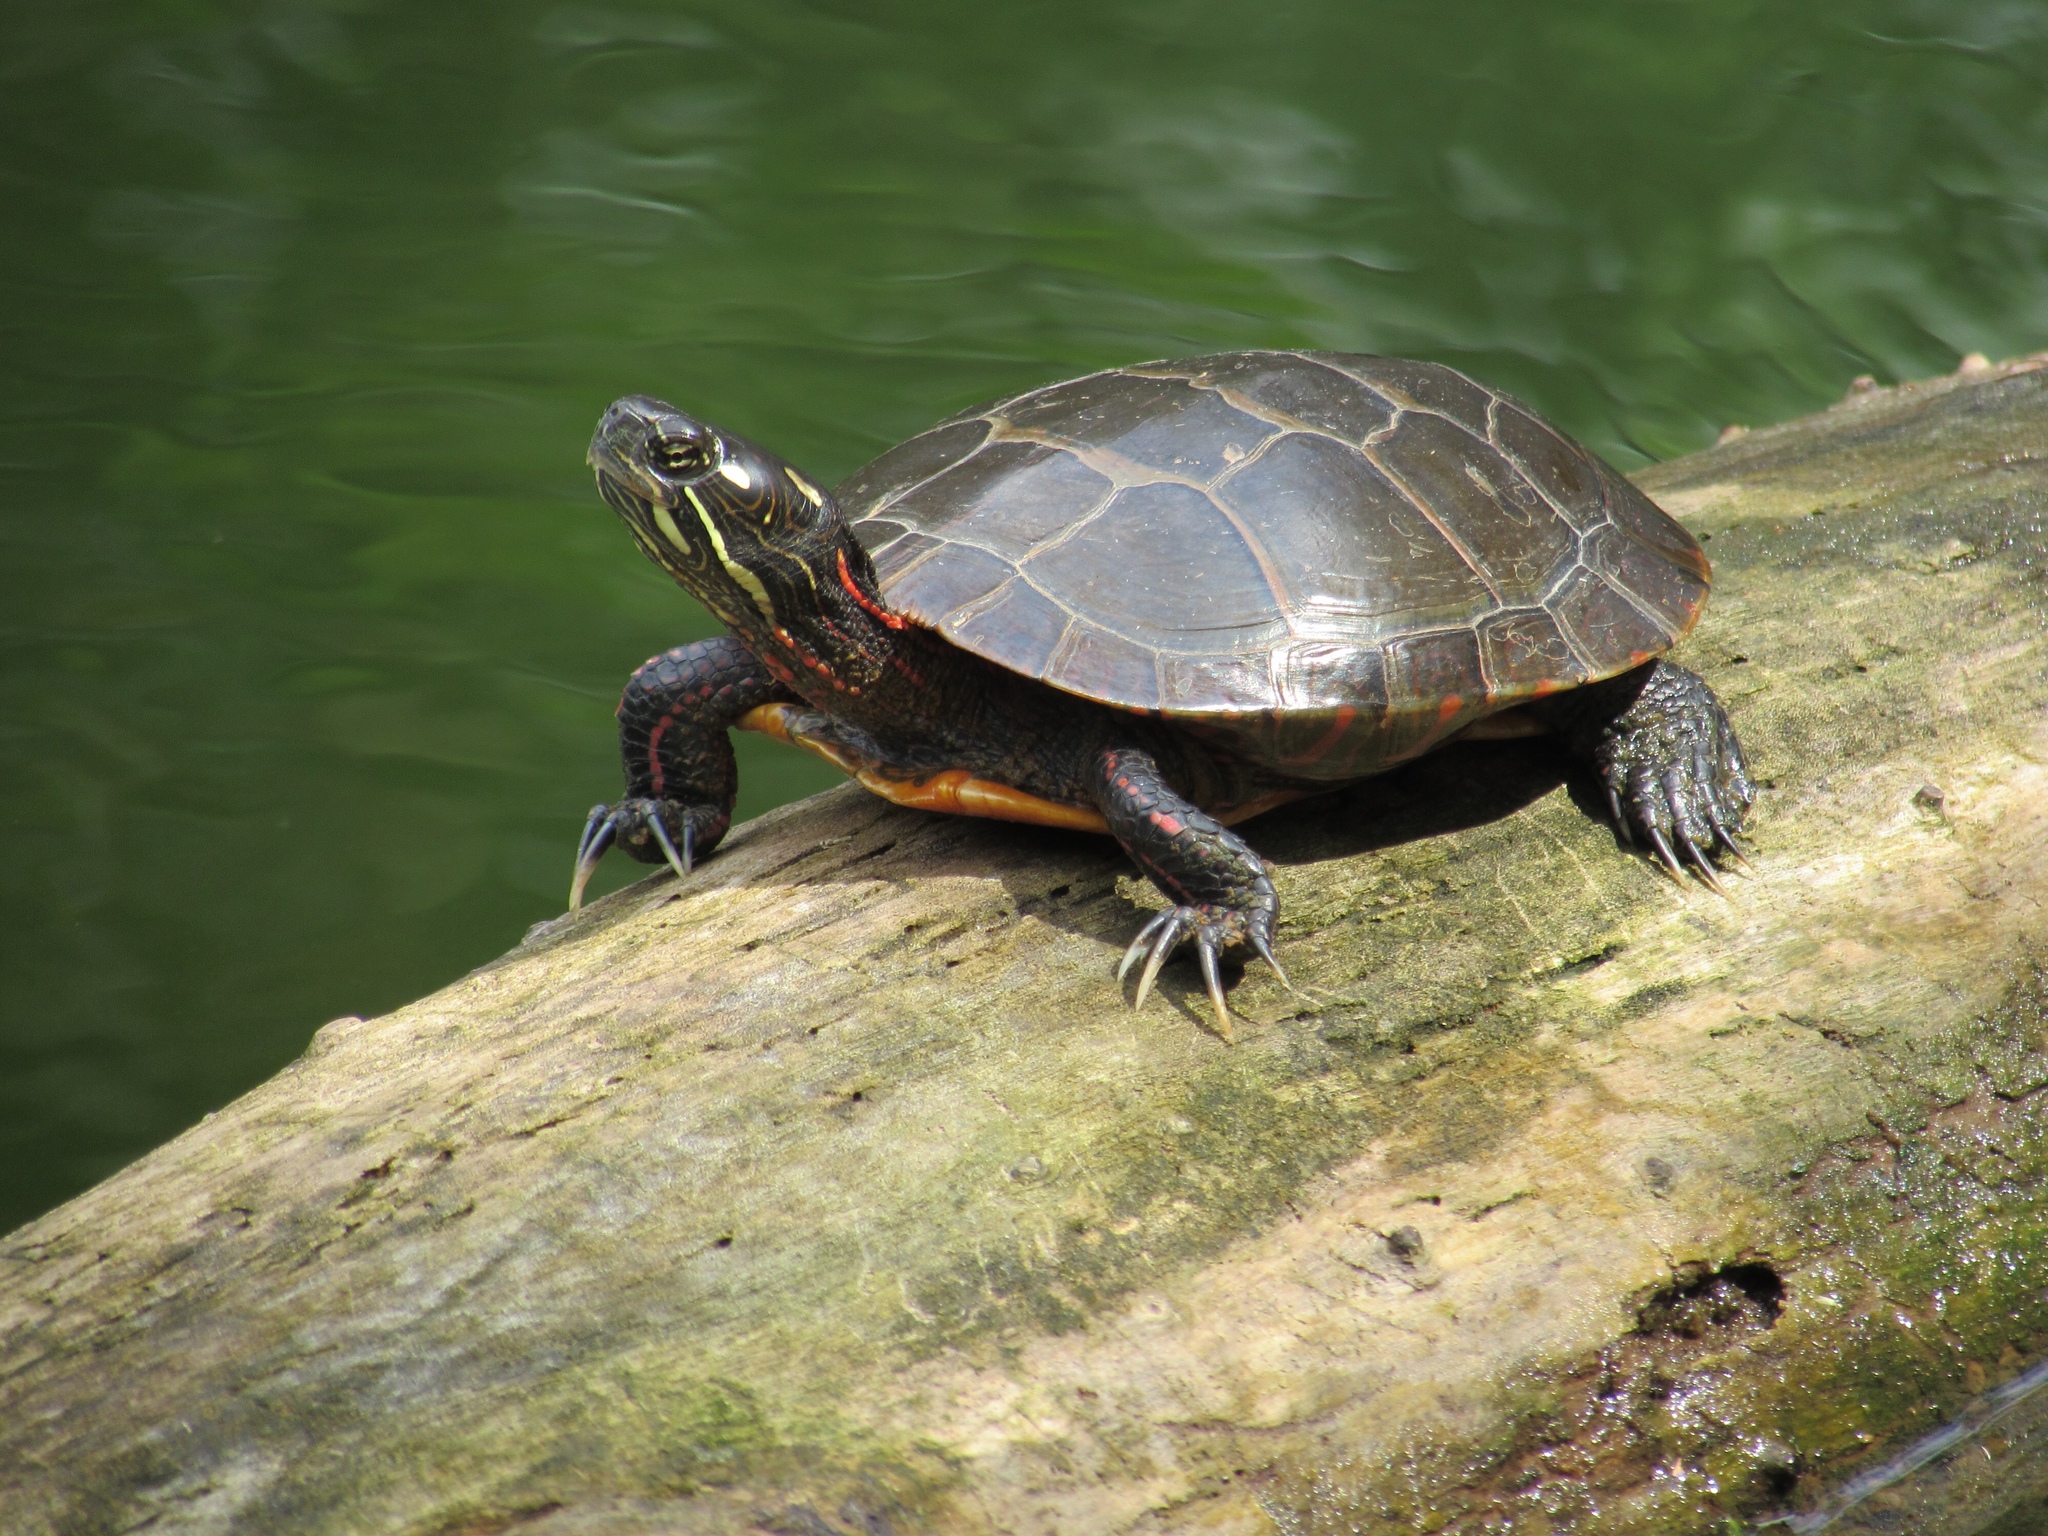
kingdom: Animalia
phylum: Chordata
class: Testudines
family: Emydidae
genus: Chrysemys
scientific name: Chrysemys picta
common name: Painted turtle
